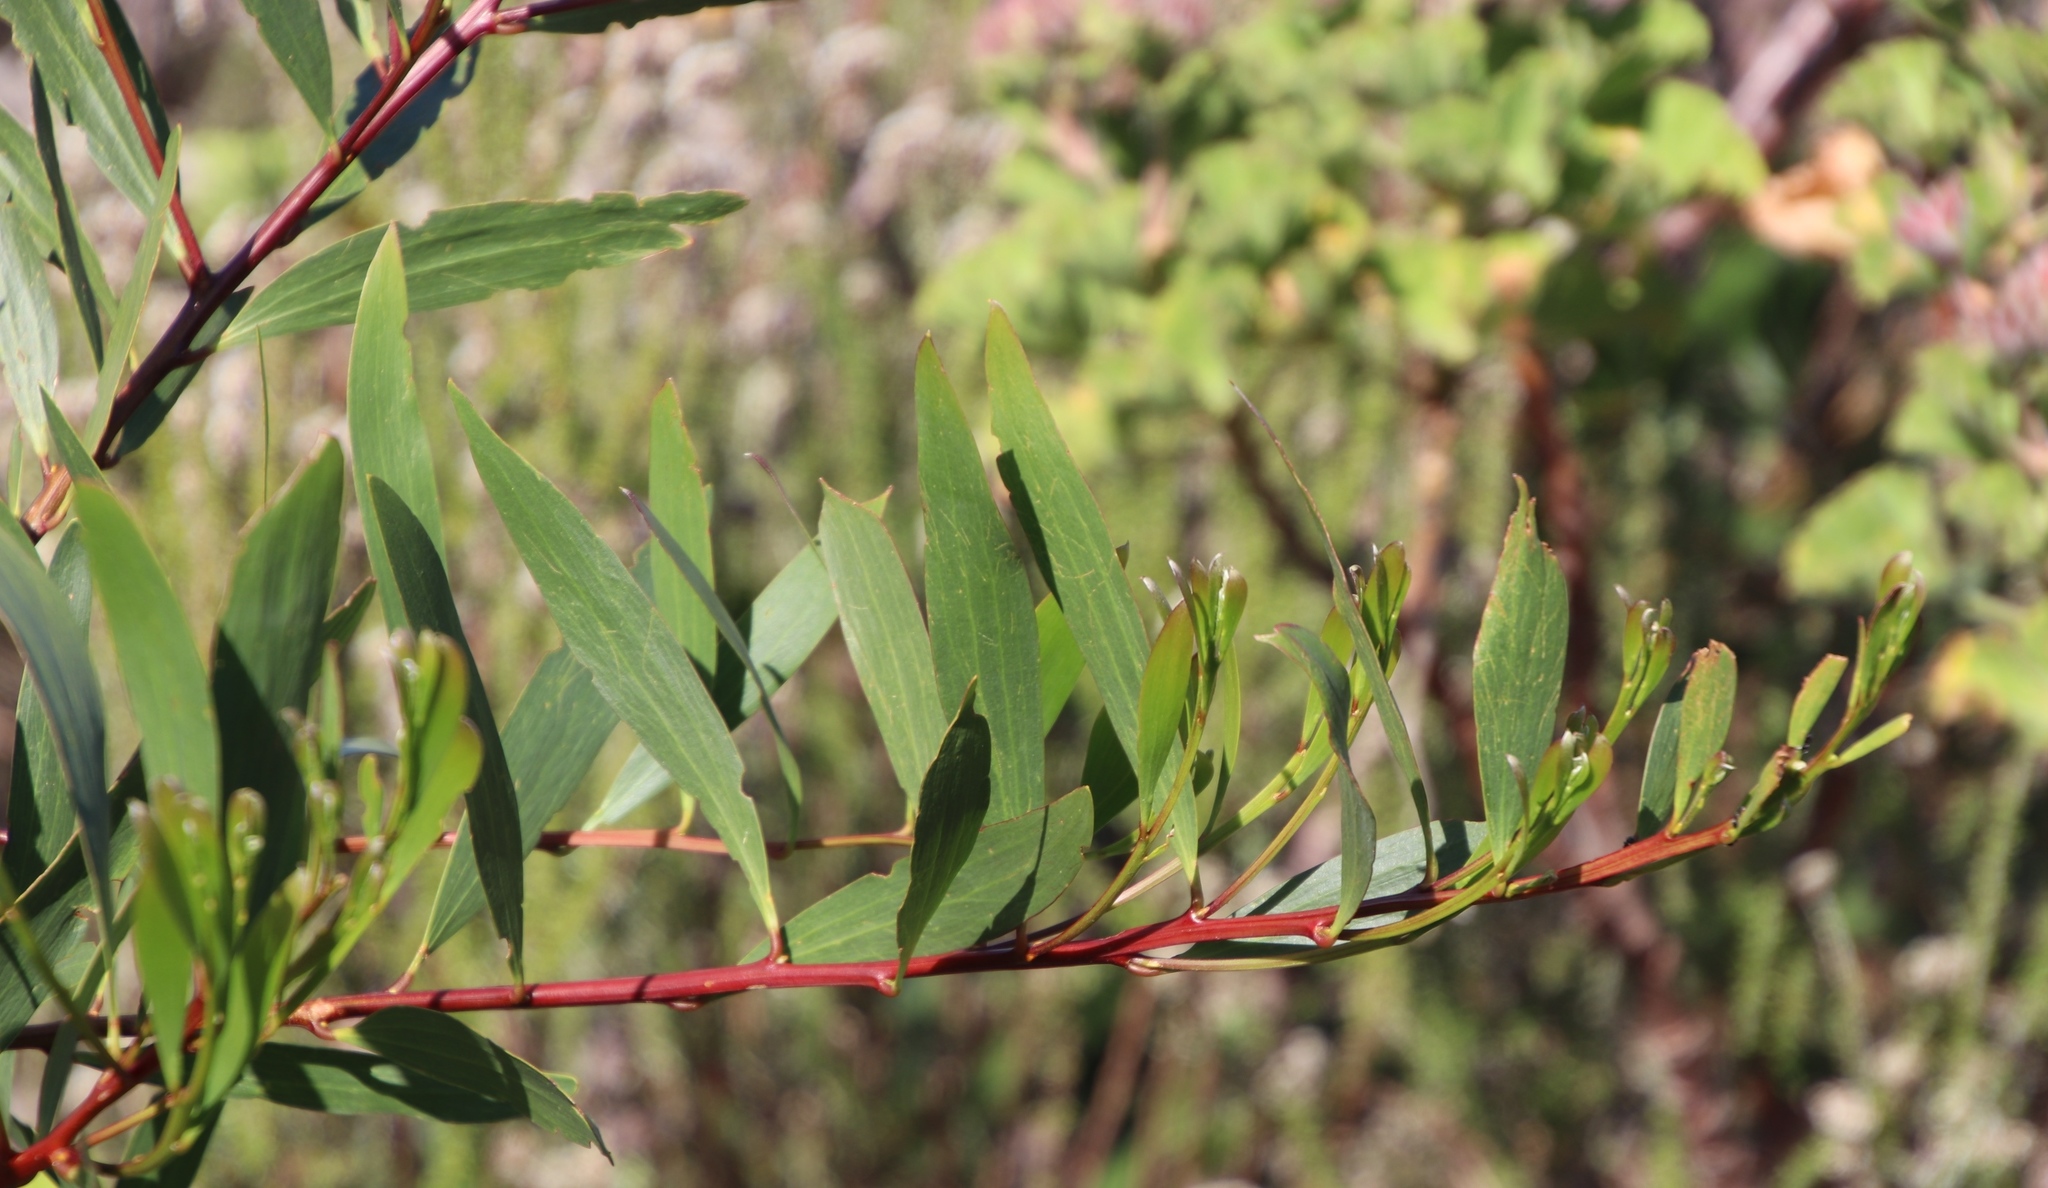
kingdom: Plantae
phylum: Tracheophyta
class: Magnoliopsida
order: Fabales
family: Fabaceae
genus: Acacia
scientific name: Acacia longifolia
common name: Sydney golden wattle
